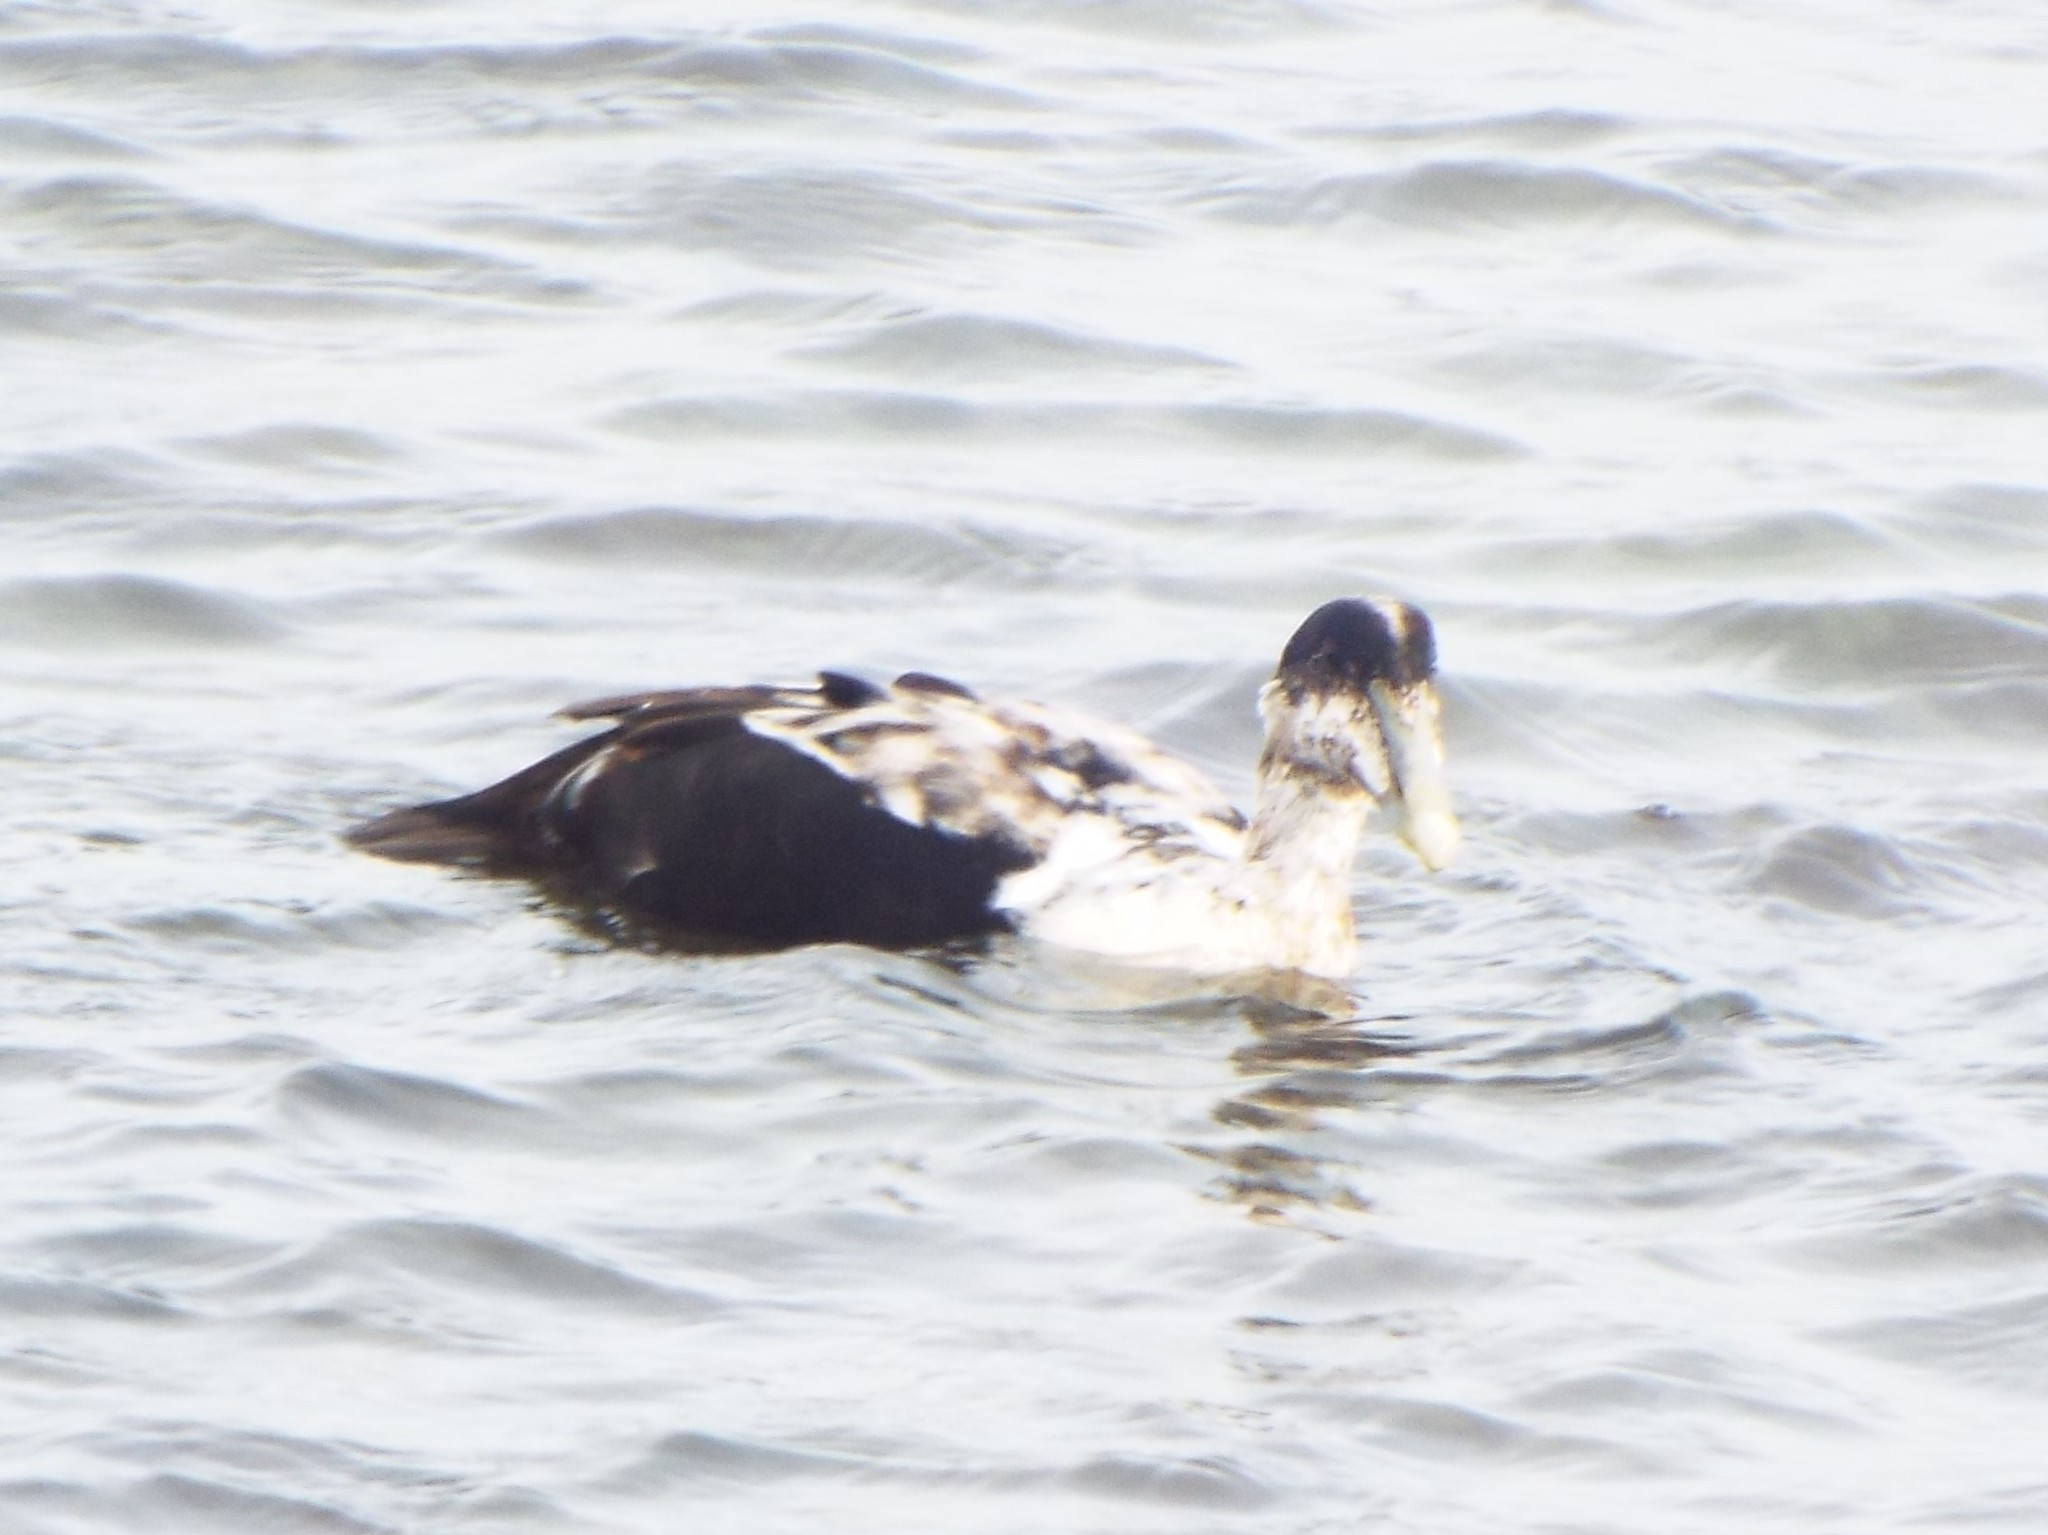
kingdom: Animalia
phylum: Chordata
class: Aves
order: Anseriformes
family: Anatidae
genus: Somateria
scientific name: Somateria mollissima
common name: Common eider
